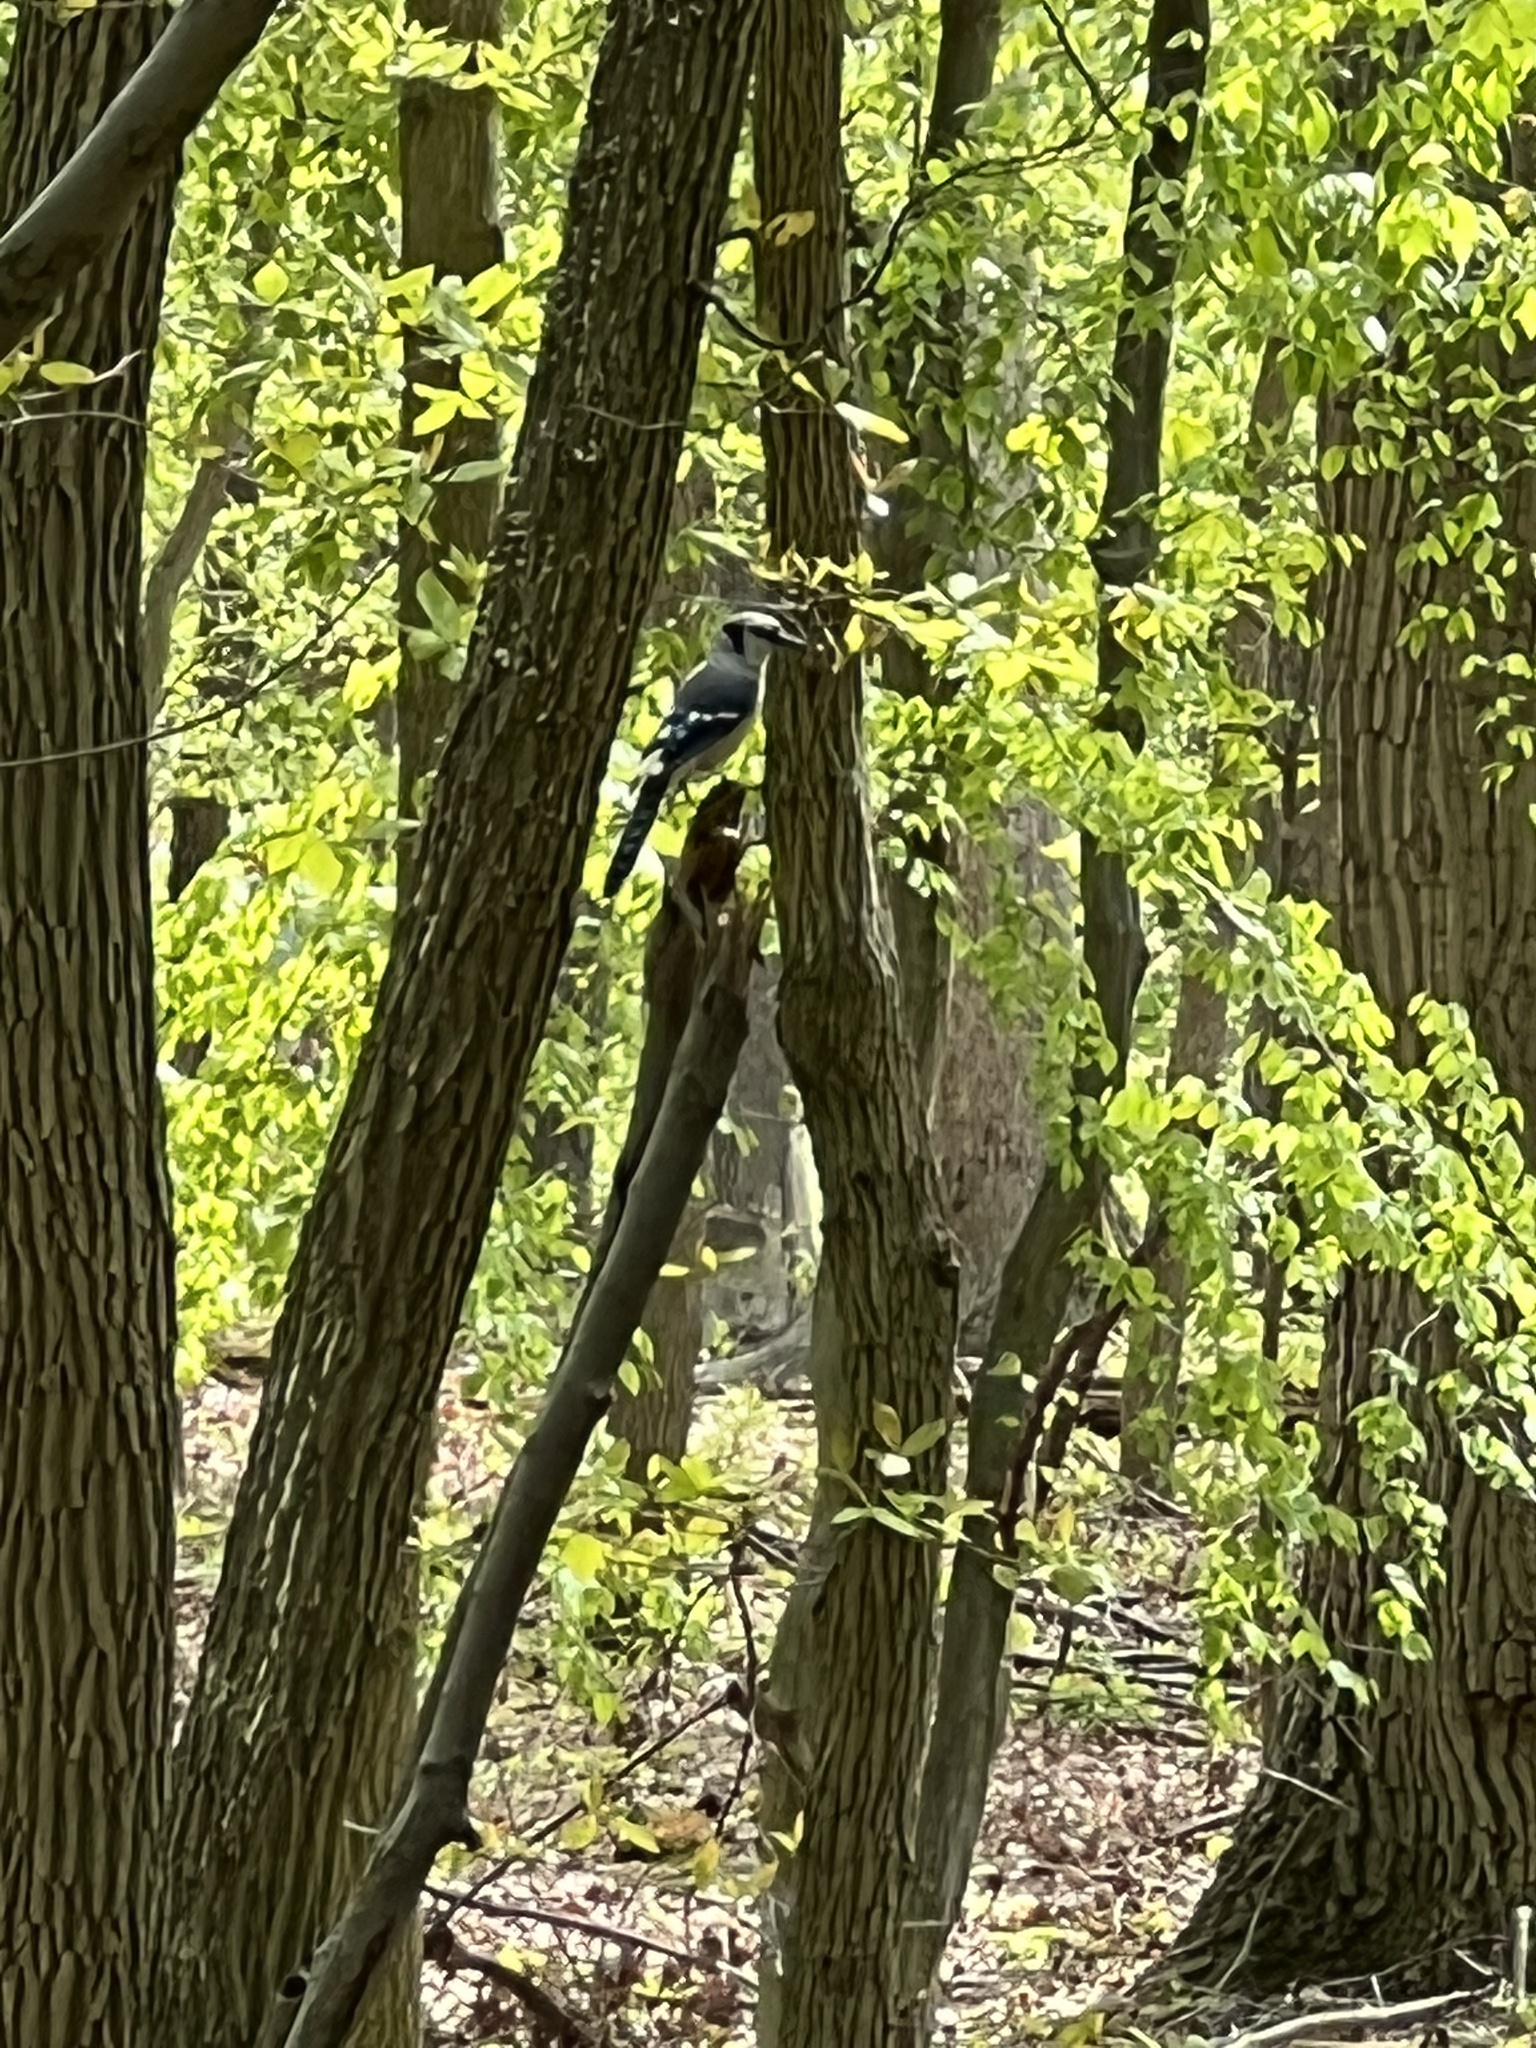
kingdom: Animalia
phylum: Chordata
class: Aves
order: Passeriformes
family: Corvidae
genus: Cyanocitta
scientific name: Cyanocitta cristata
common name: Blue jay
